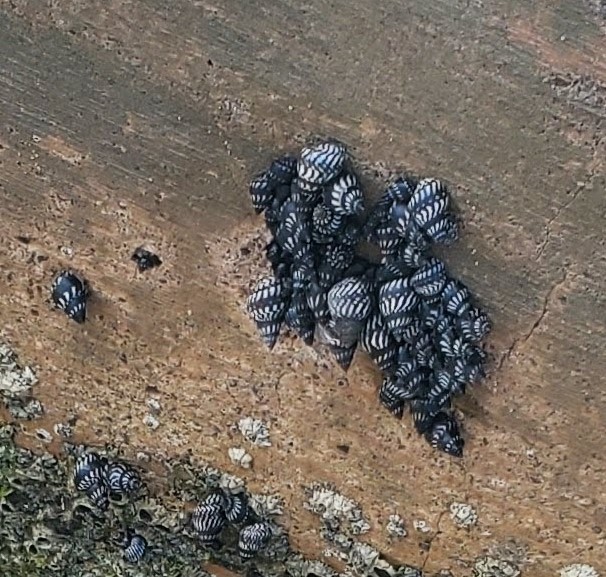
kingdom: Animalia
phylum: Mollusca
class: Gastropoda
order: Littorinimorpha
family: Littorinidae
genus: Echinolittorina
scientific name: Echinolittorina interrupta
